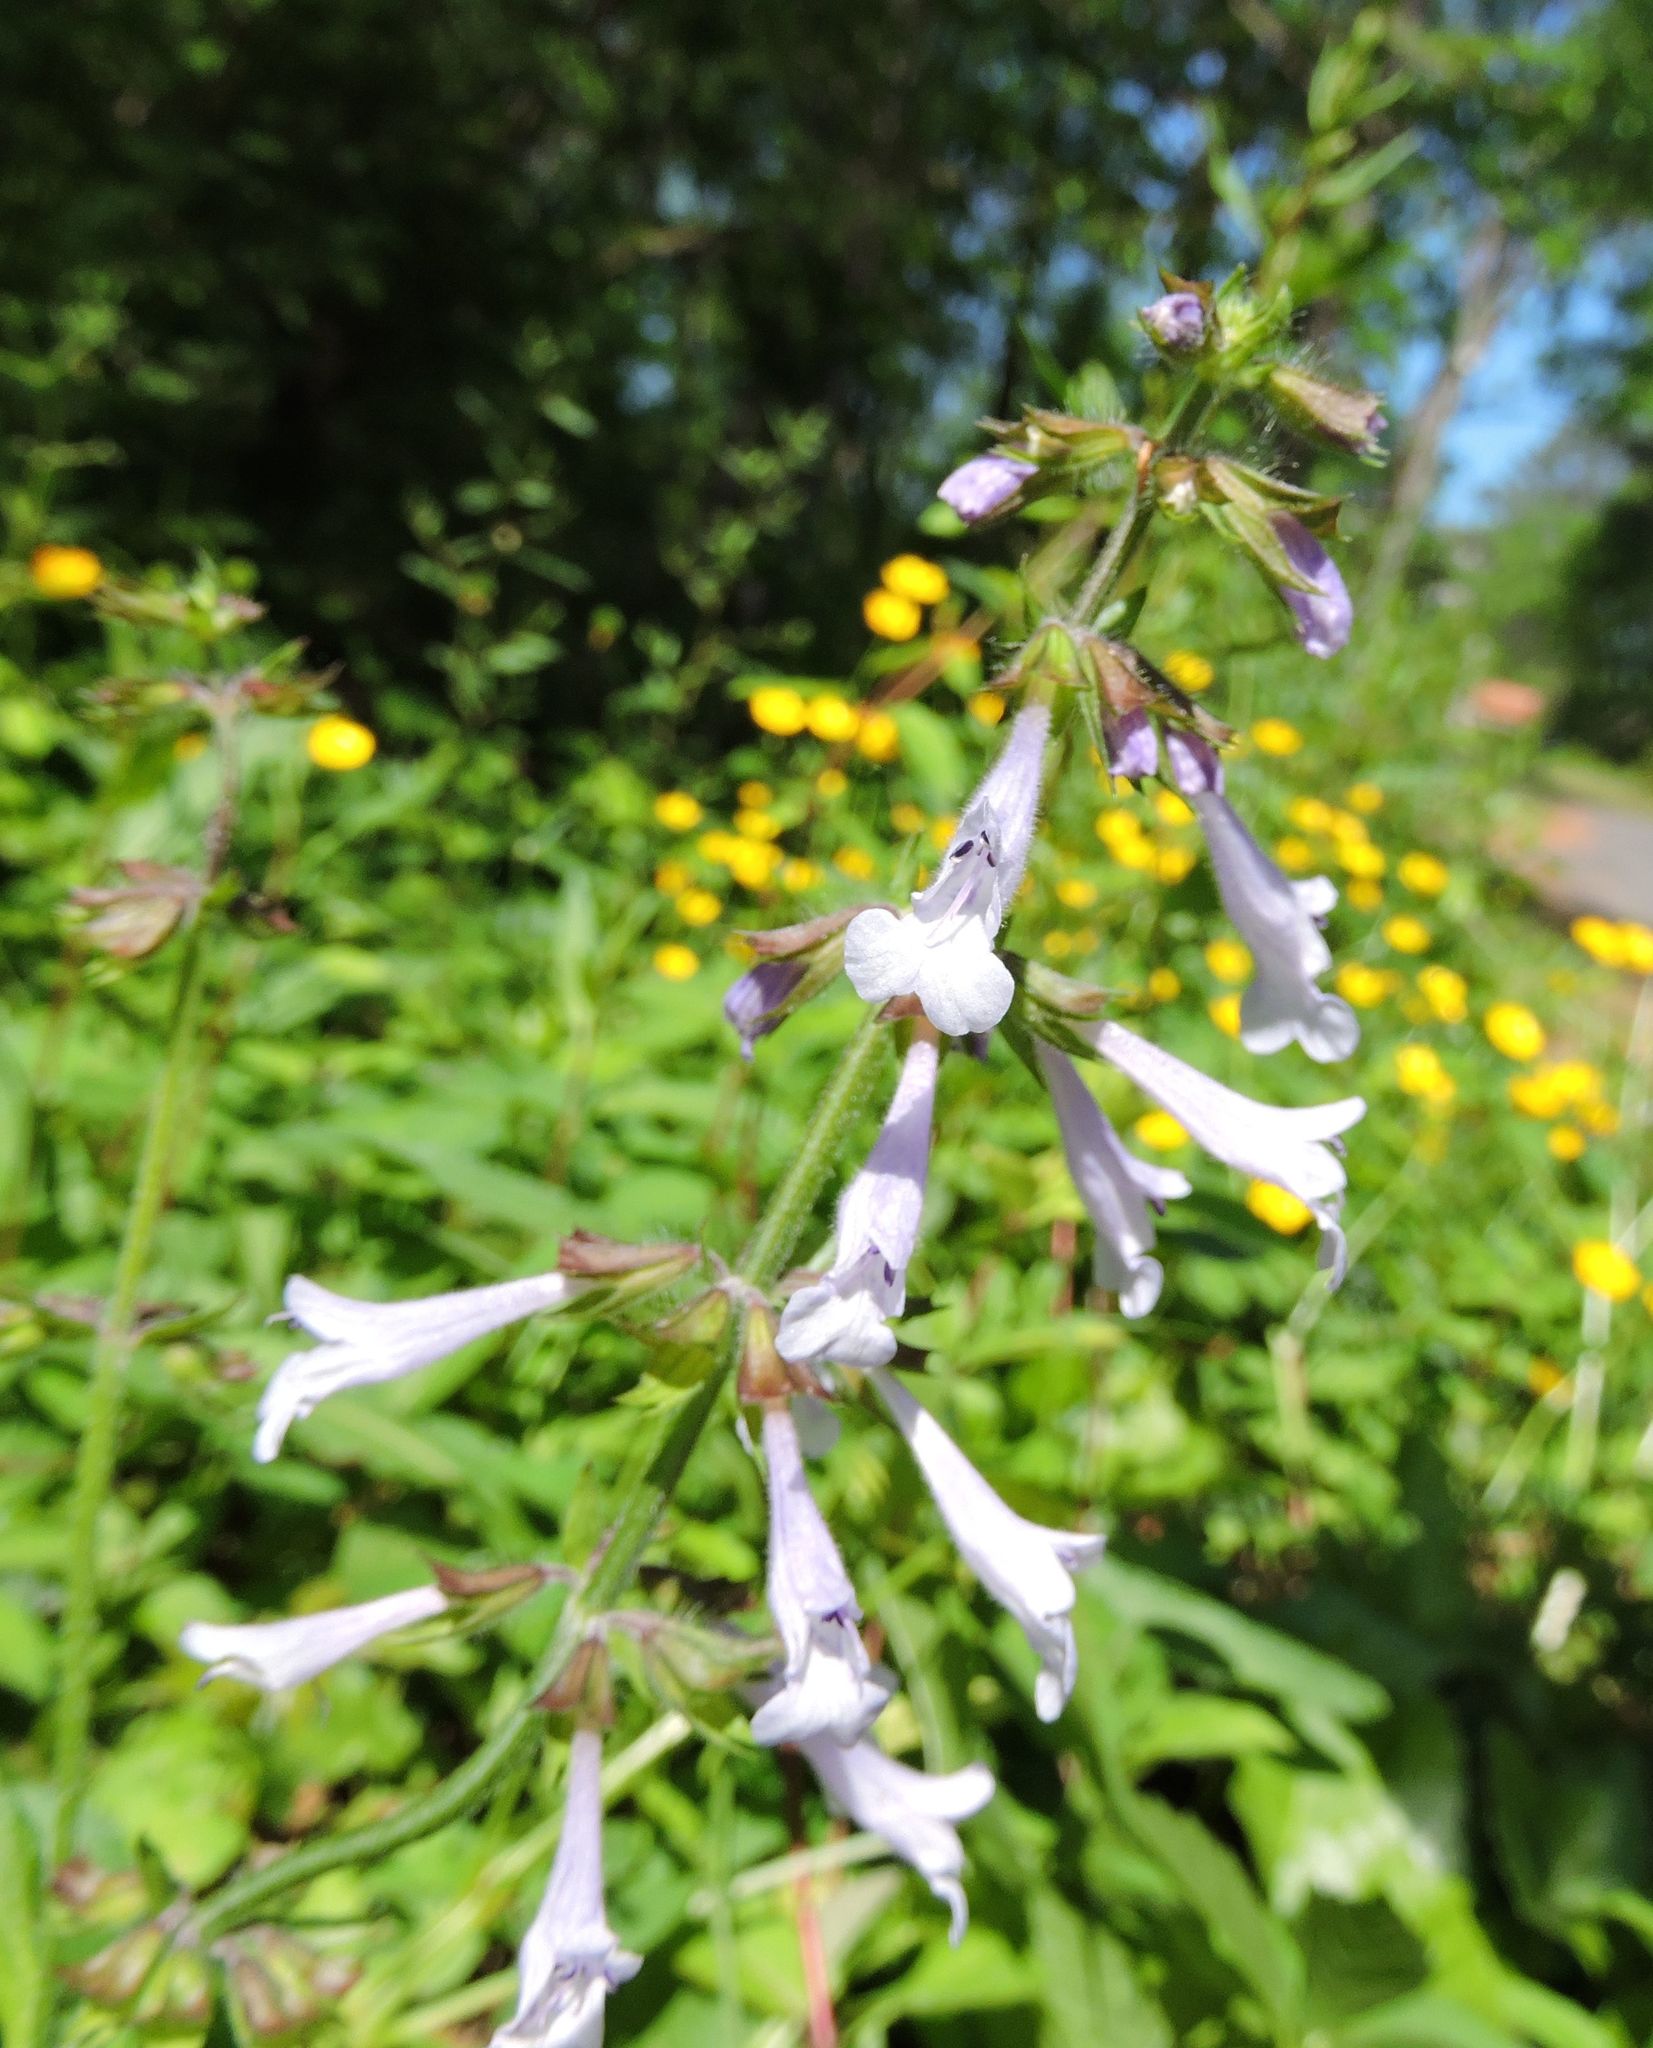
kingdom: Plantae
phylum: Tracheophyta
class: Magnoliopsida
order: Lamiales
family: Lamiaceae
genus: Salvia
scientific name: Salvia lyrata
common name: Cancerweed
